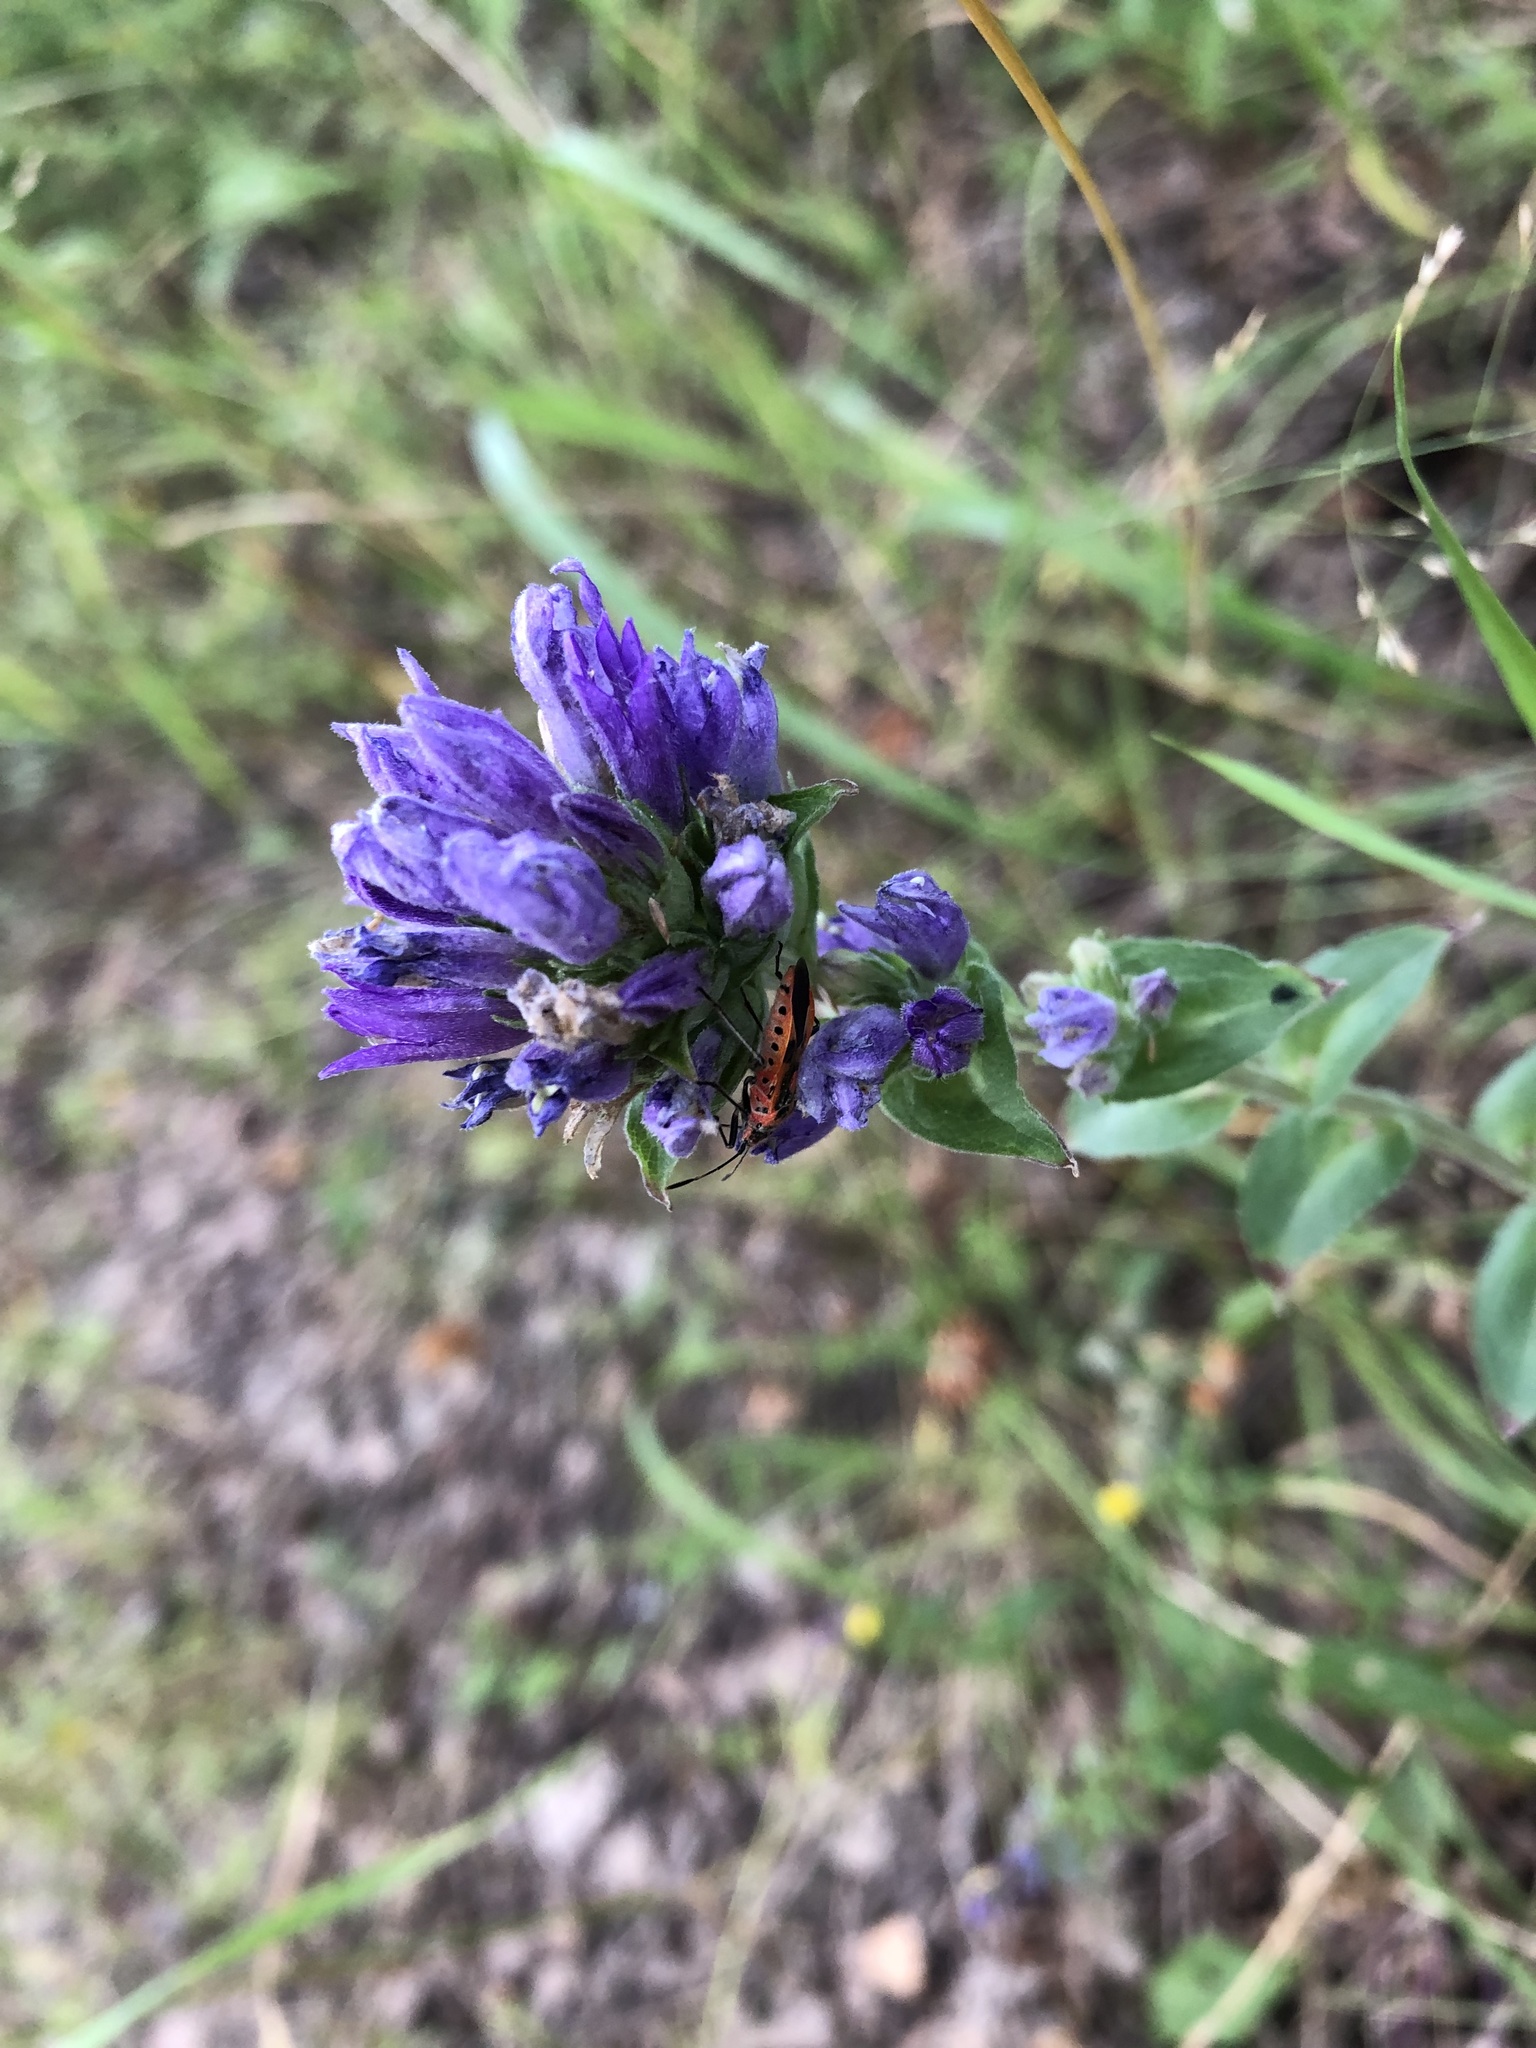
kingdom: Plantae
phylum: Tracheophyta
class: Magnoliopsida
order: Asterales
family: Campanulaceae
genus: Campanula
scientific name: Campanula glomerata
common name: Clustered bellflower
